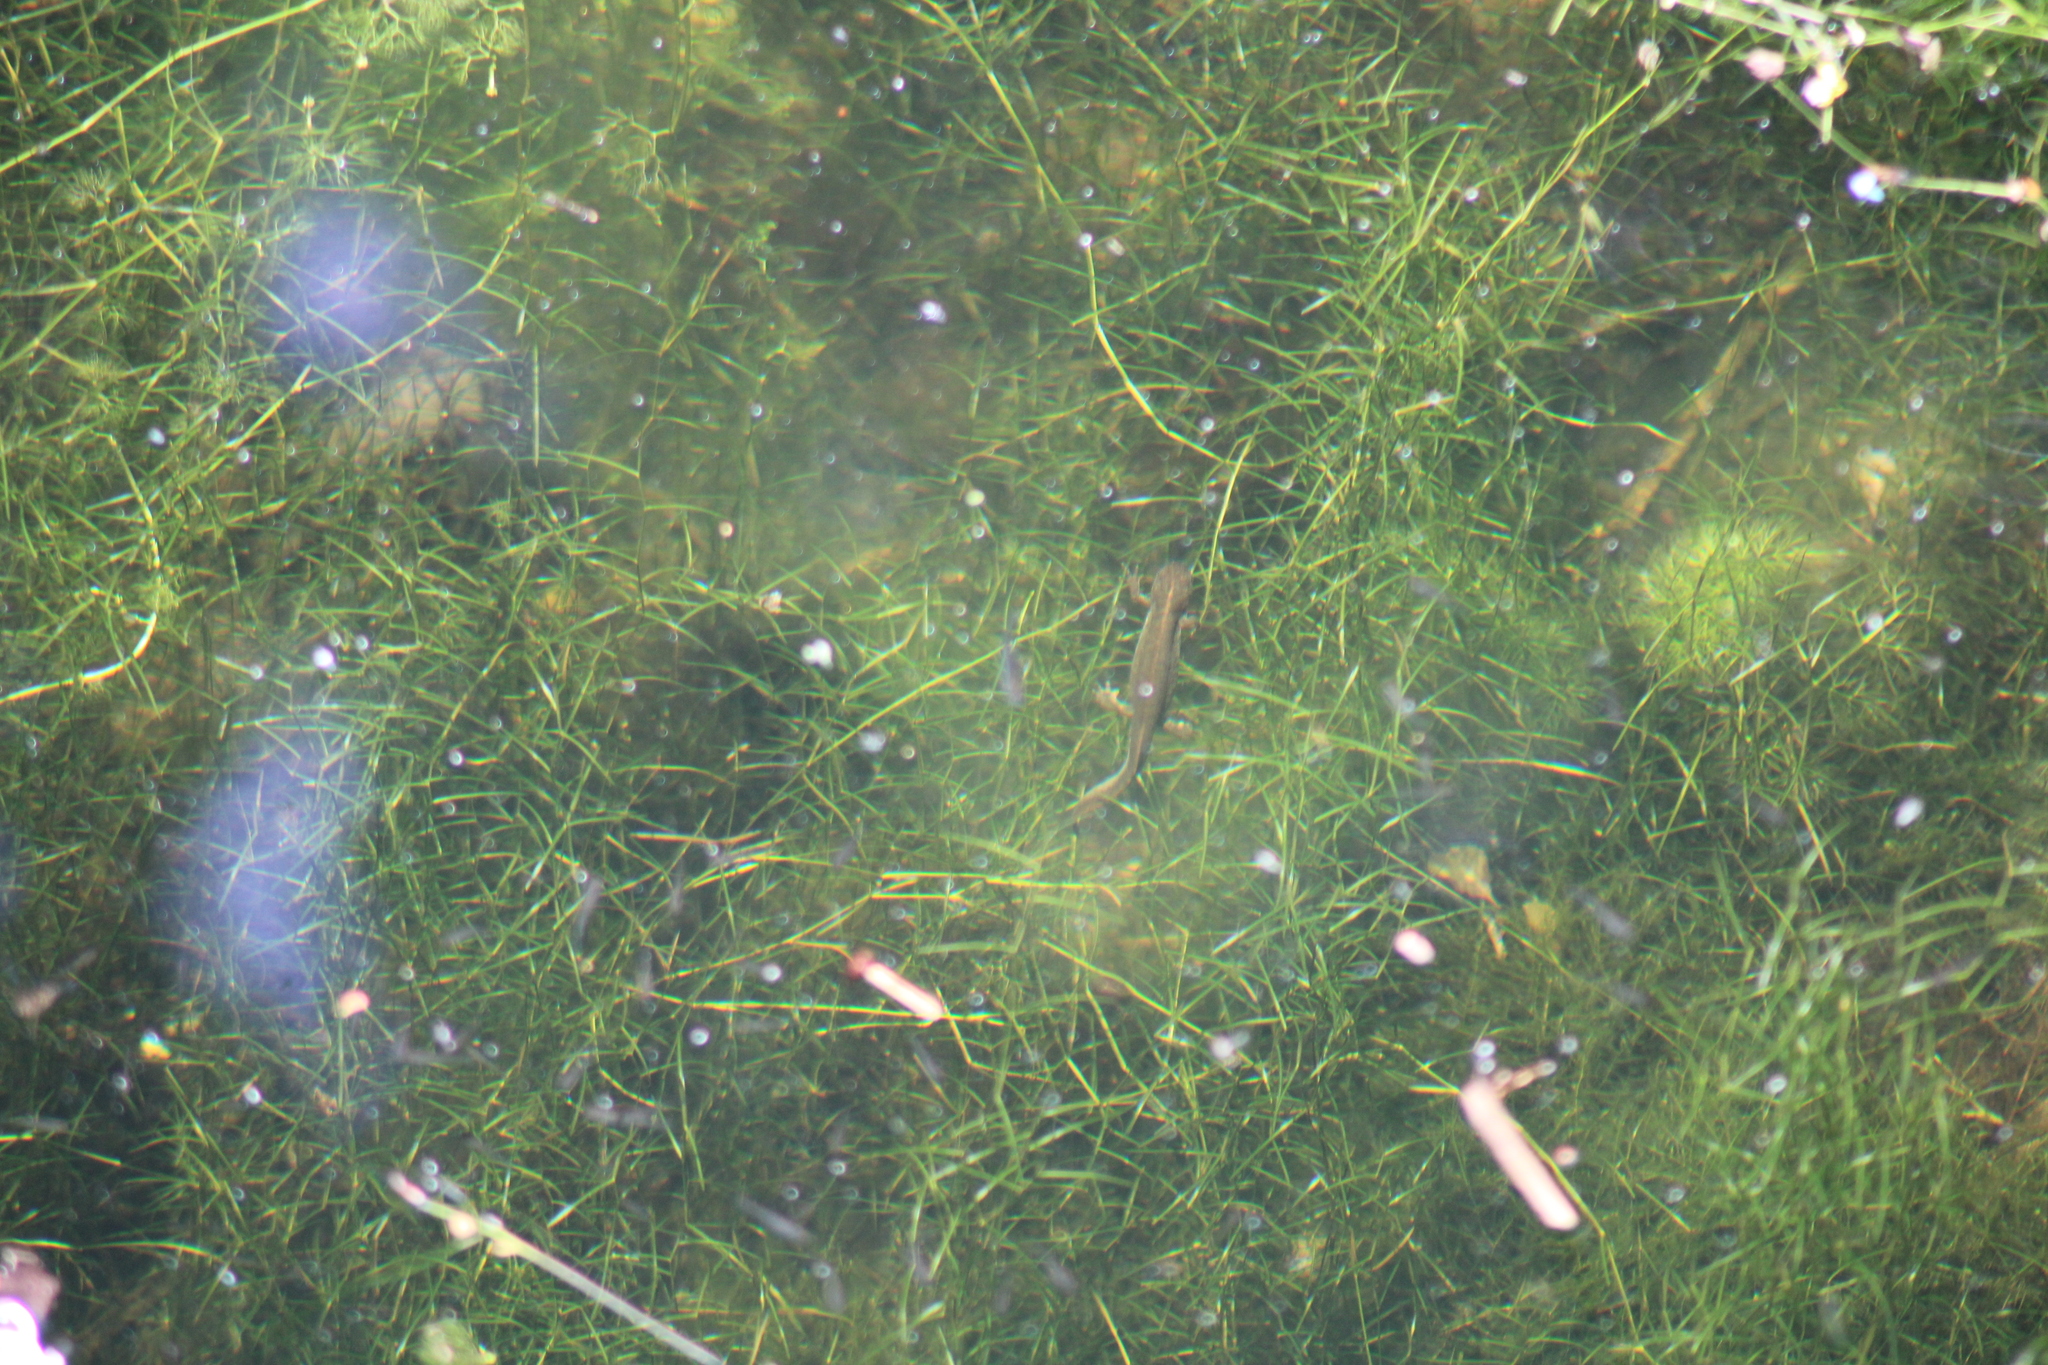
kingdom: Animalia
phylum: Chordata
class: Amphibia
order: Caudata
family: Salamandridae
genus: Triturus
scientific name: Triturus dobrogicus
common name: Danube crested newt
